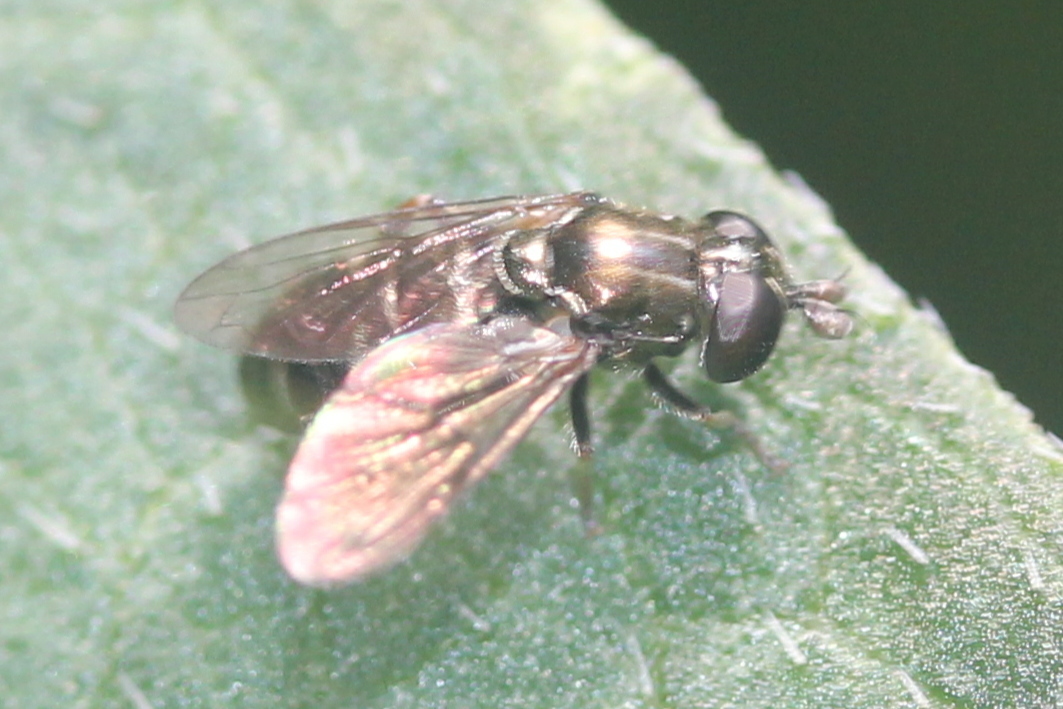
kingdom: Animalia
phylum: Arthropoda
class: Insecta
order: Diptera
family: Syrphidae
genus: Eumerus
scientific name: Eumerus
